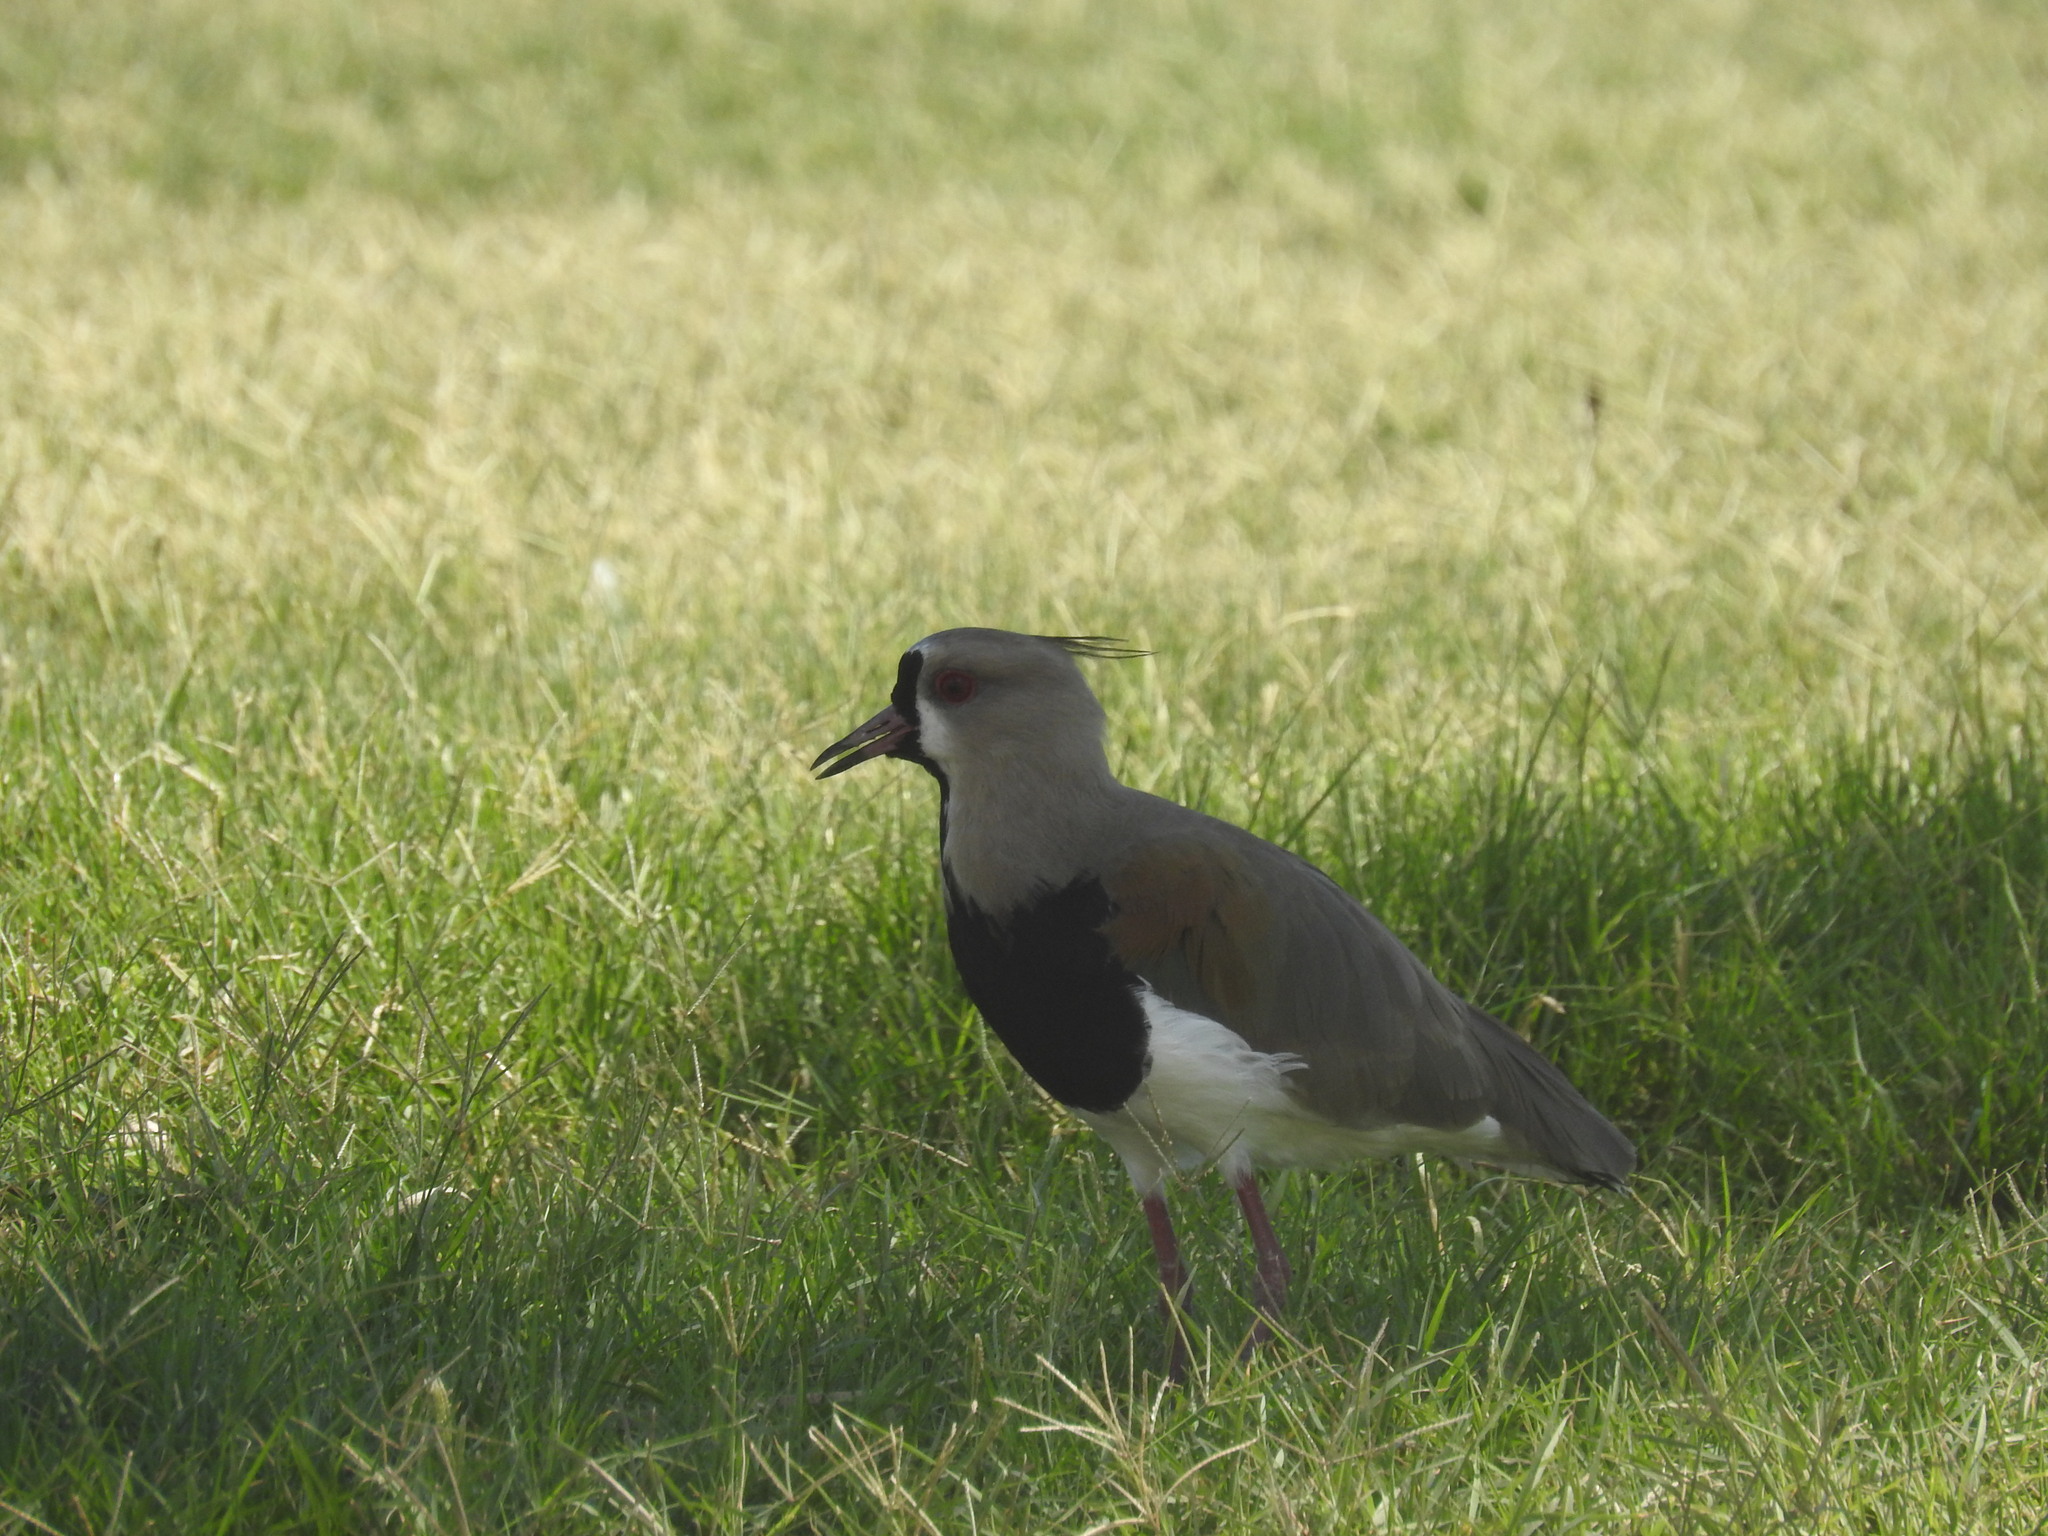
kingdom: Animalia
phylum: Chordata
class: Aves
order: Charadriiformes
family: Charadriidae
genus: Vanellus
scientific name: Vanellus chilensis
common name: Southern lapwing
